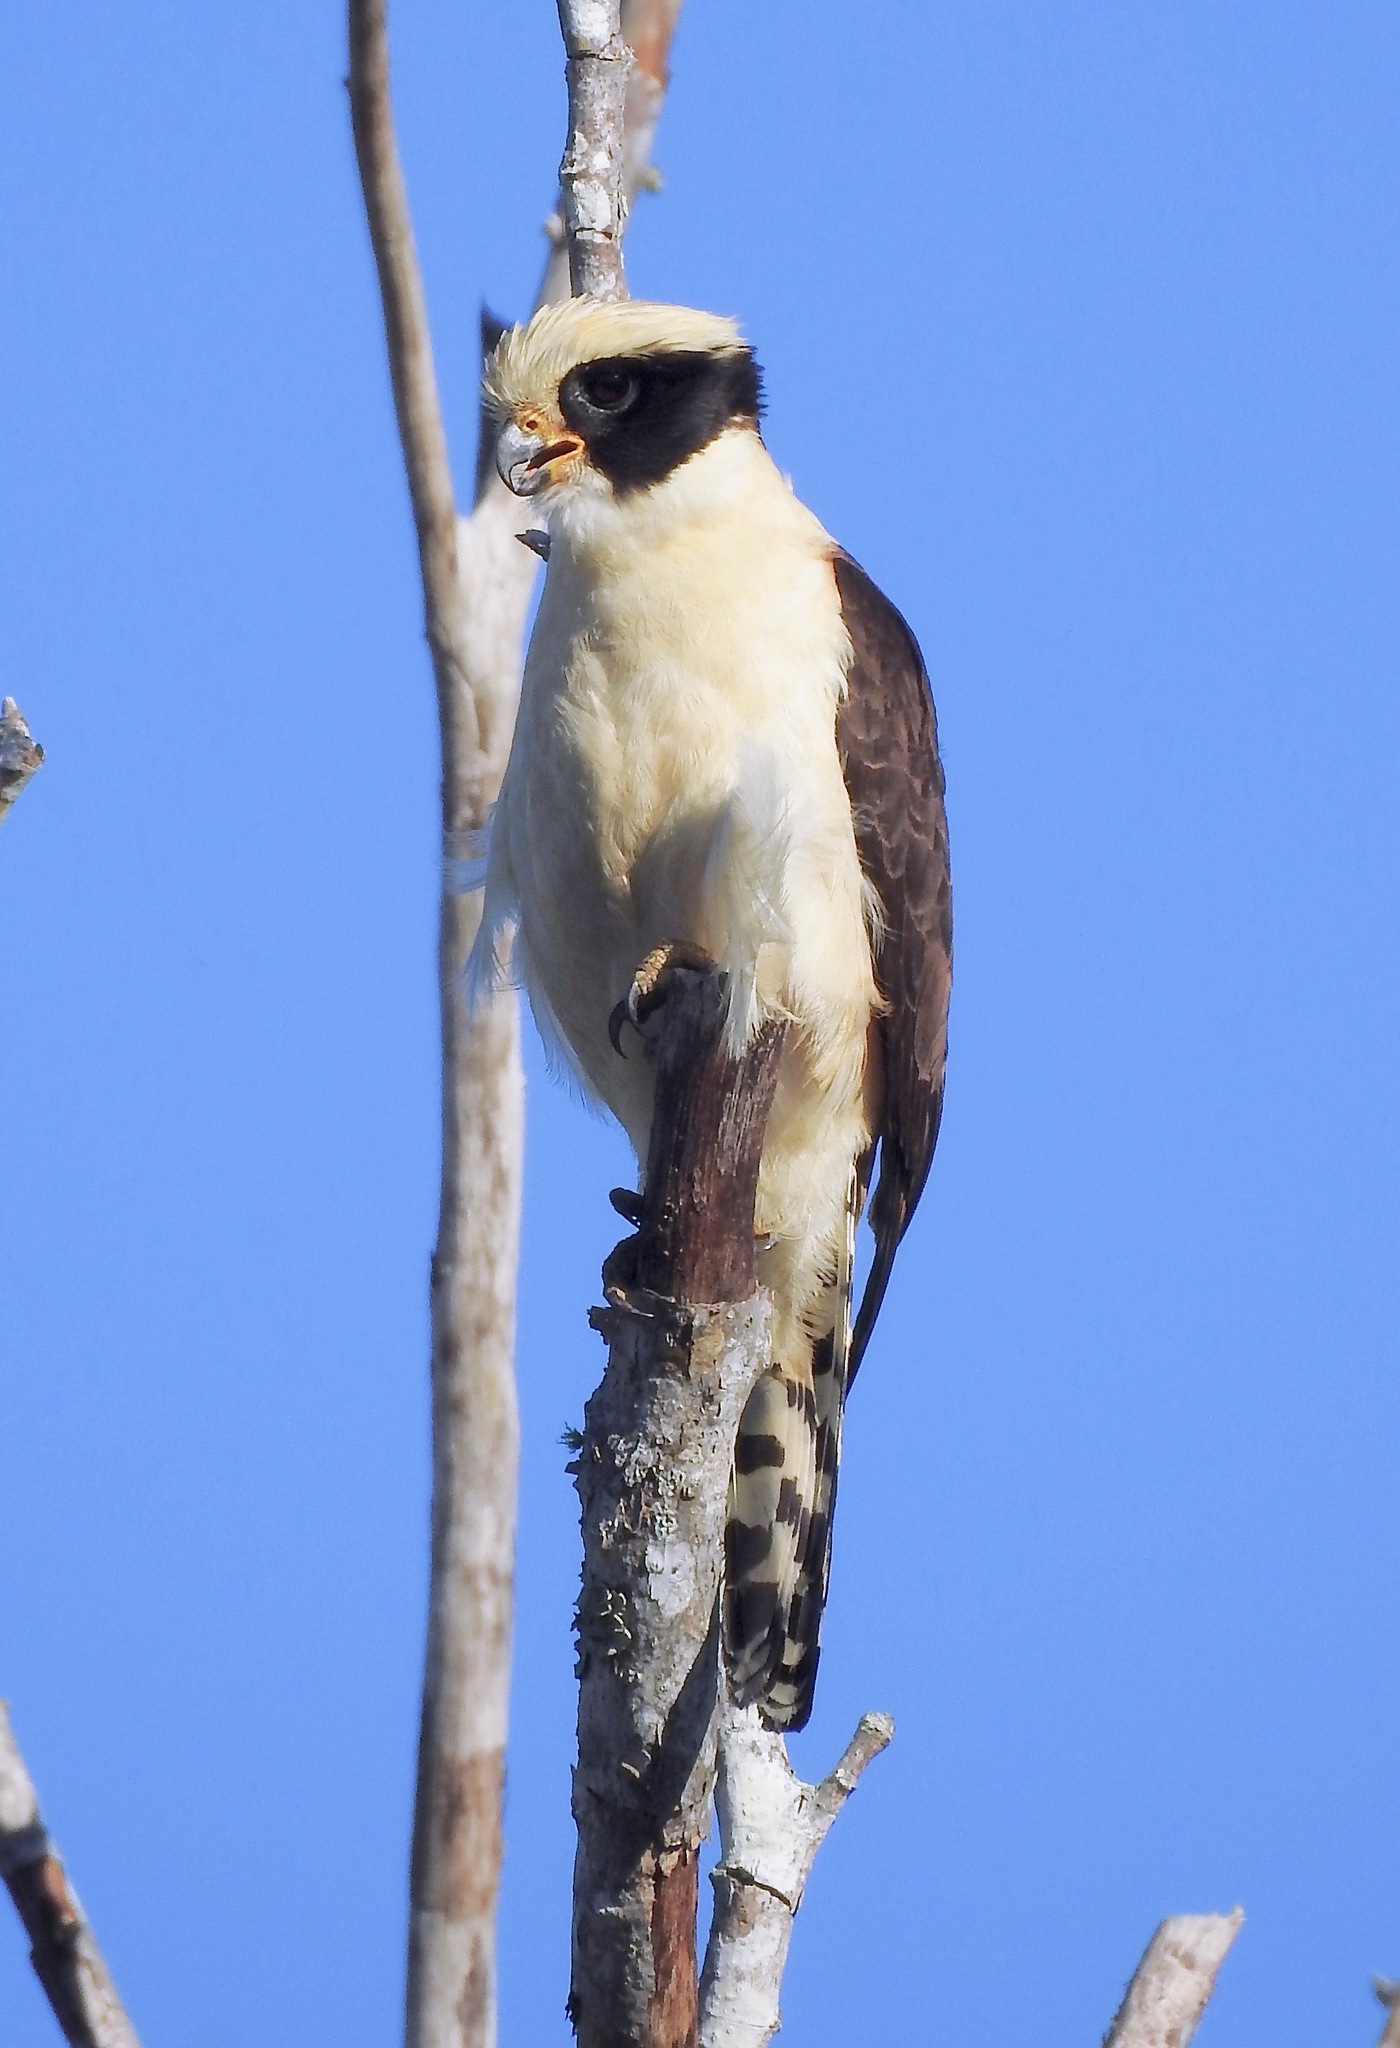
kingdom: Animalia
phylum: Chordata
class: Aves
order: Falconiformes
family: Falconidae
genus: Herpetotheres
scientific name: Herpetotheres cachinnans
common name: Laughing falcon
